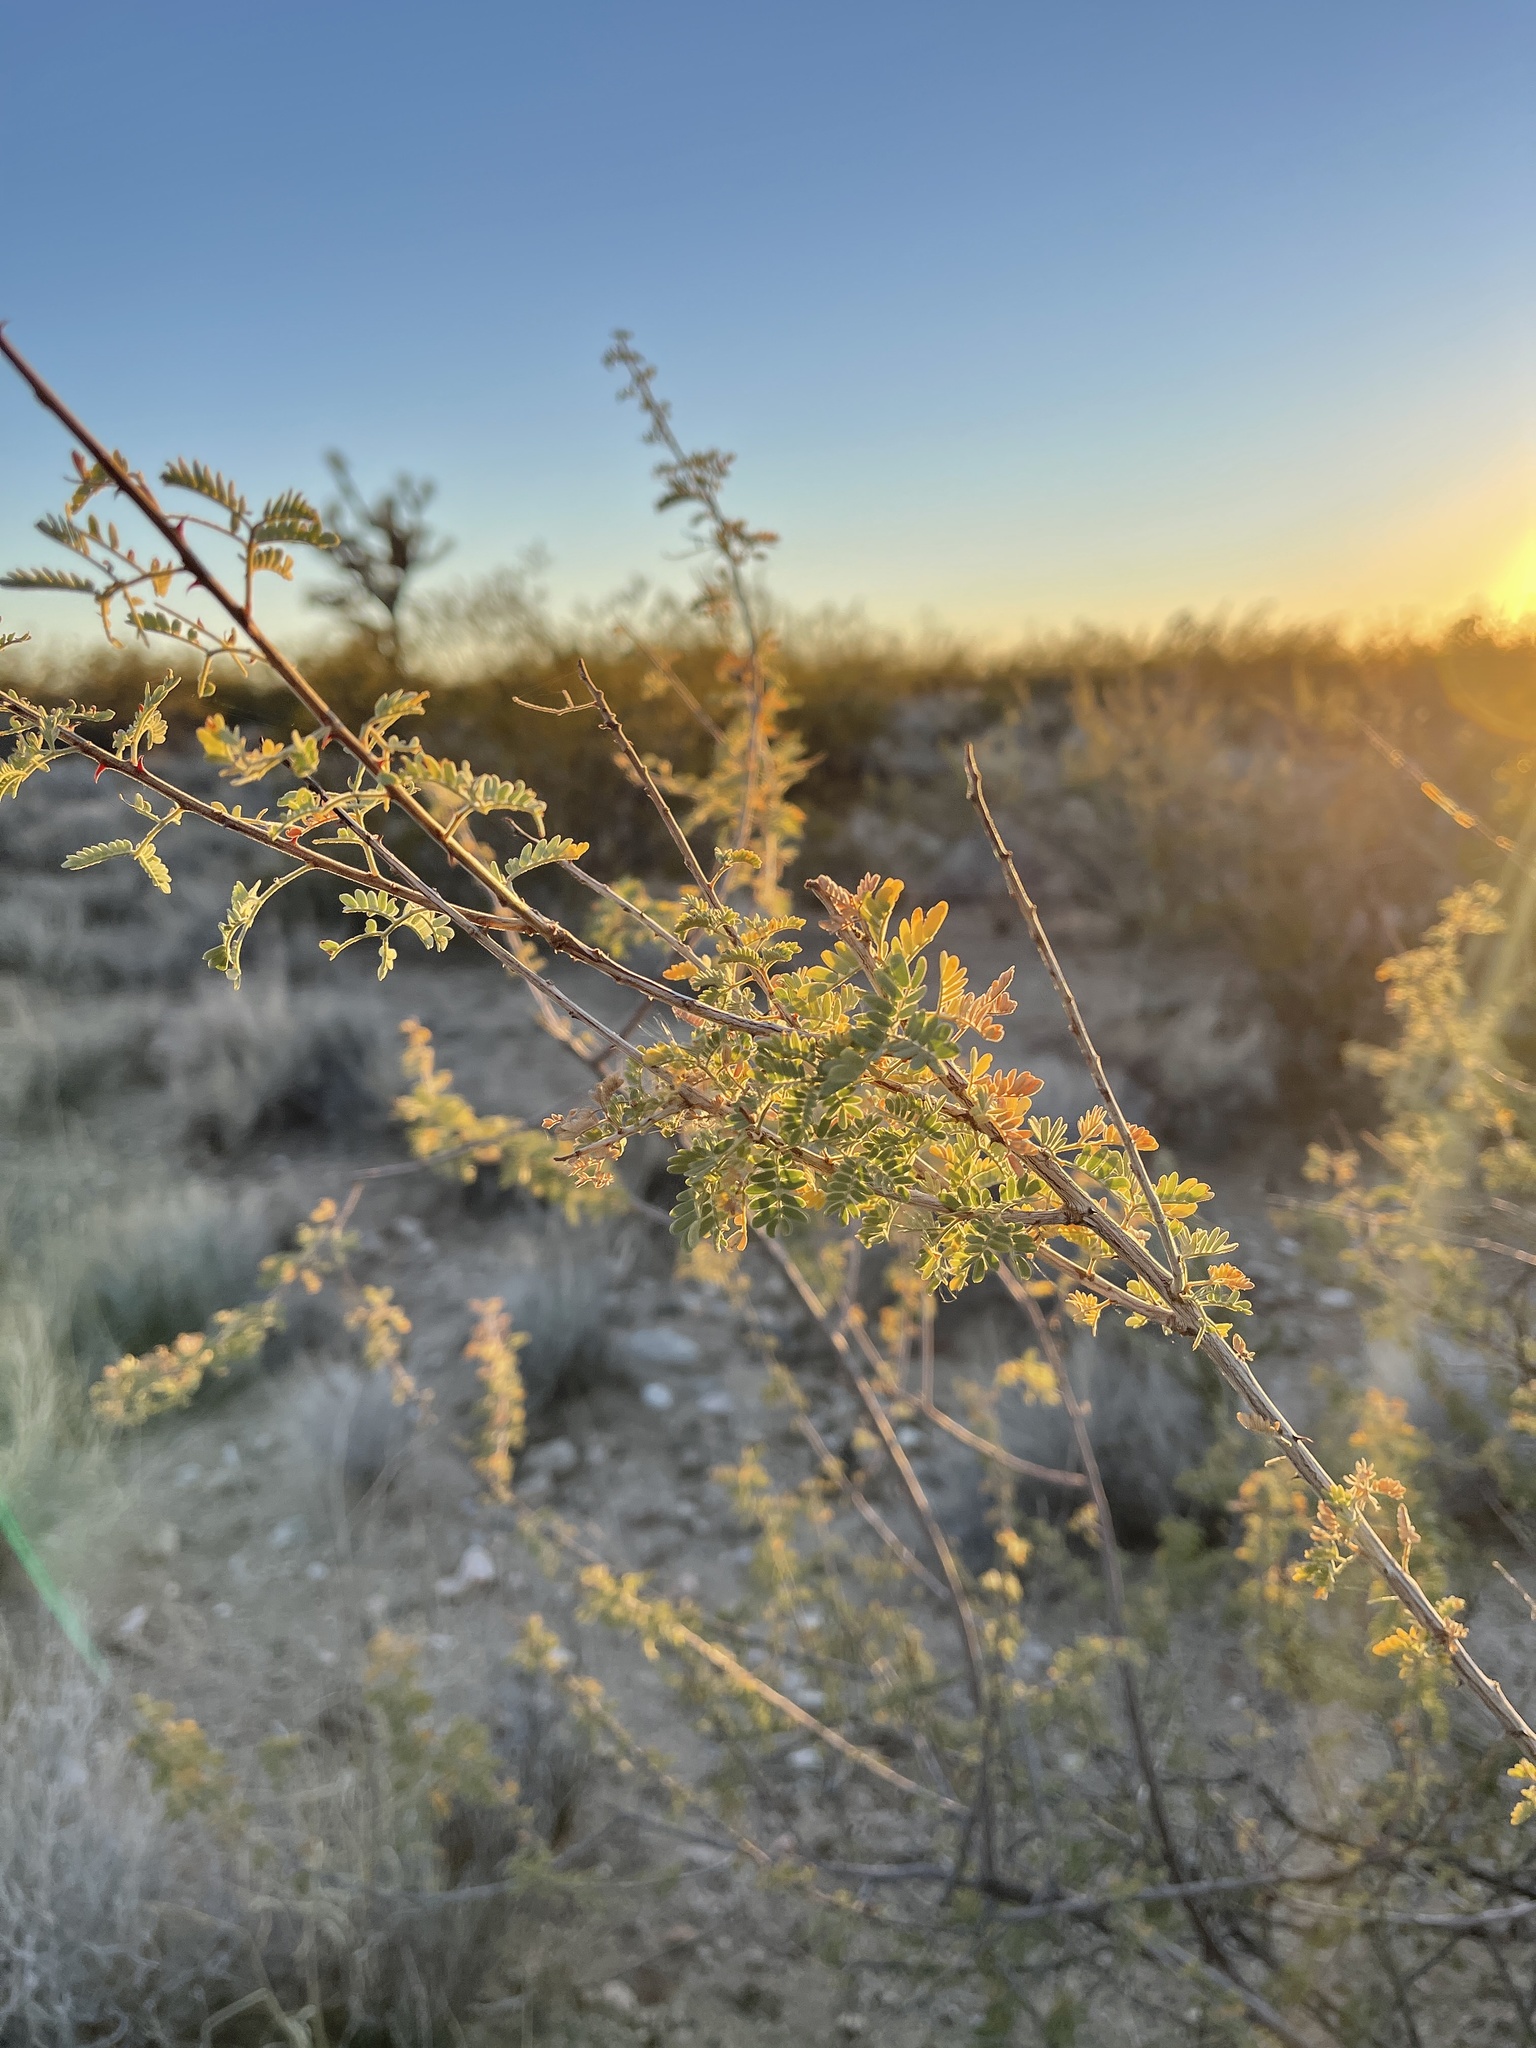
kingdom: Plantae
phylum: Tracheophyta
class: Magnoliopsida
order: Fabales
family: Fabaceae
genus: Senegalia
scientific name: Senegalia greggii
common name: Texas-mimosa
